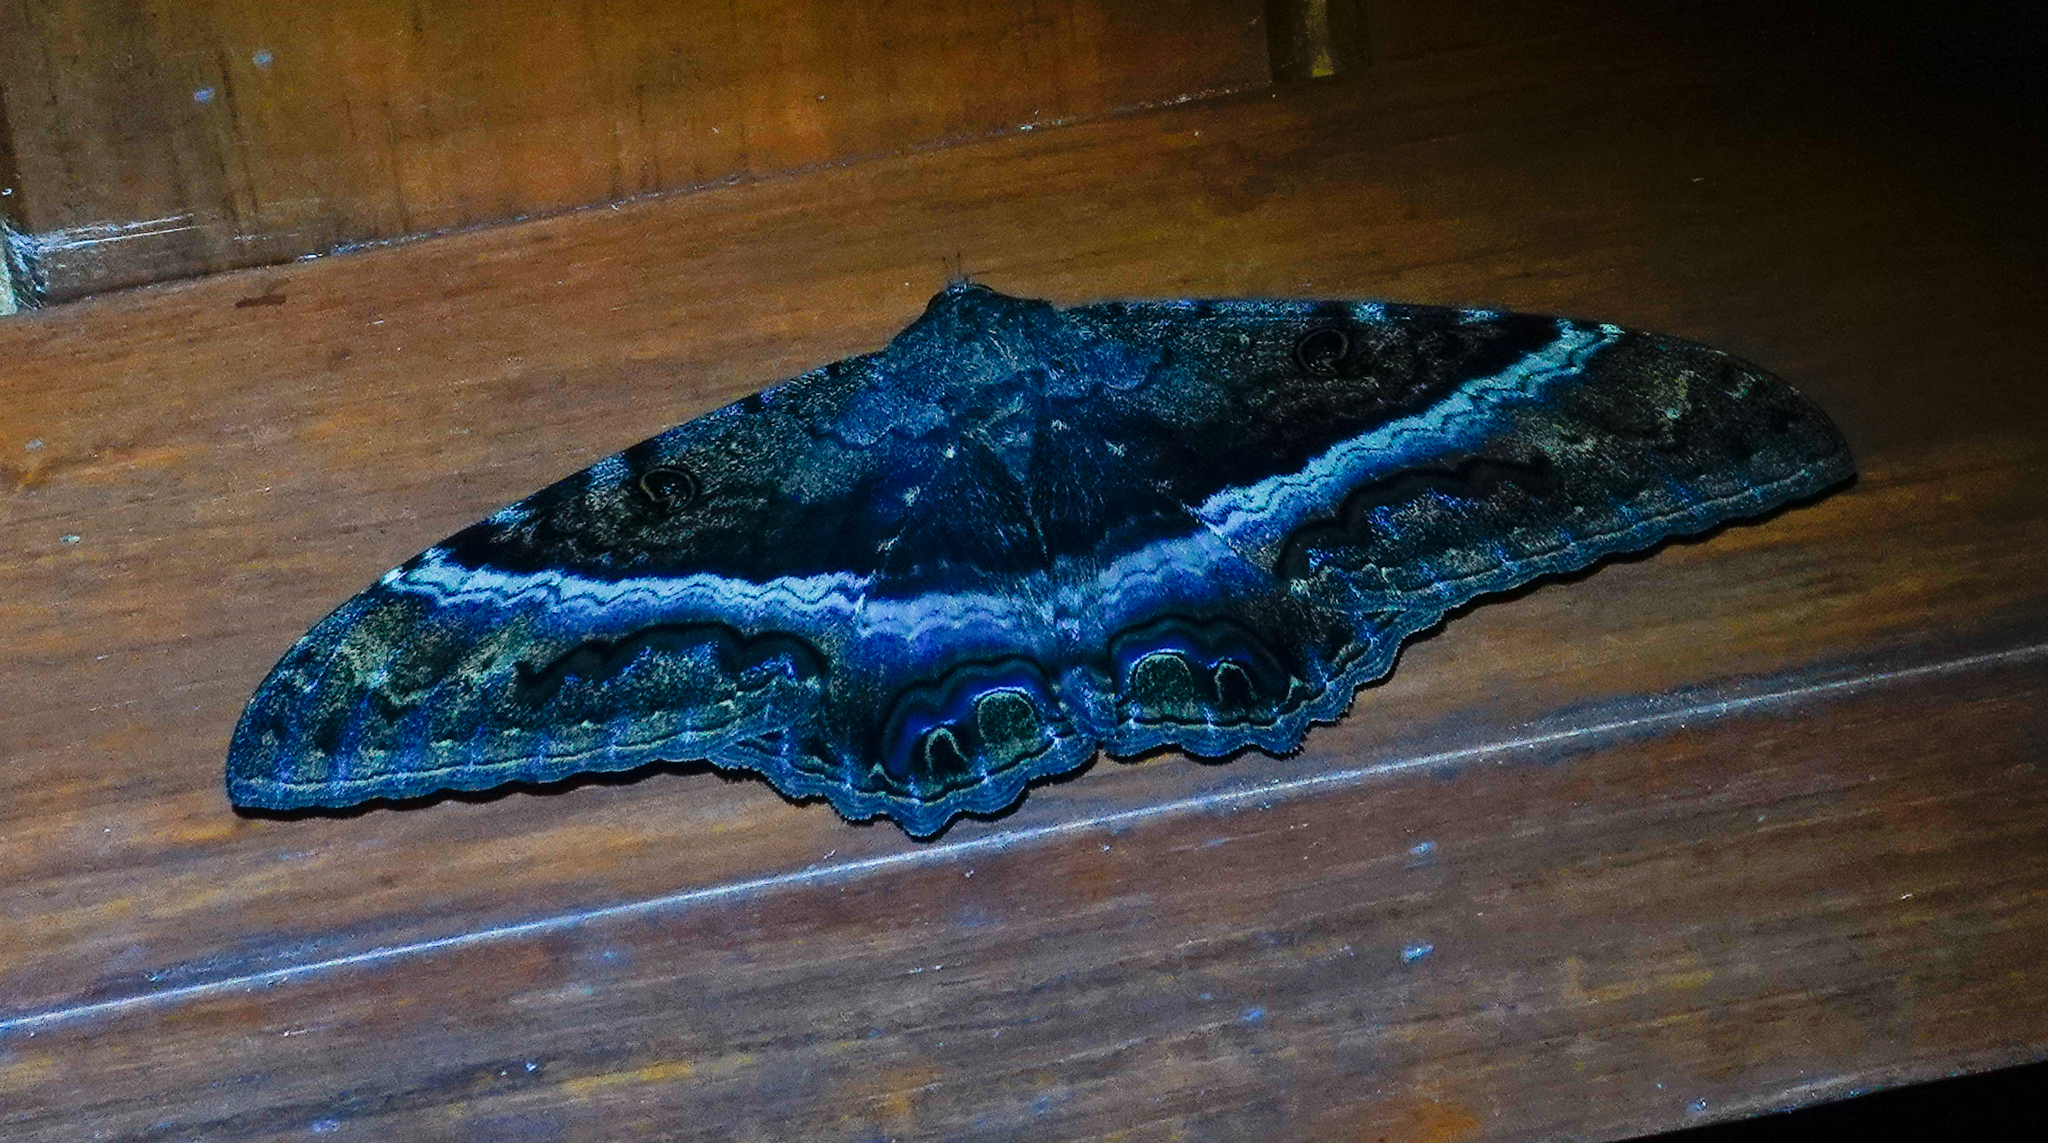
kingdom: Animalia
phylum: Arthropoda
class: Insecta
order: Lepidoptera
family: Erebidae
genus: Ascalapha
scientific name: Ascalapha odorata
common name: Black witch
